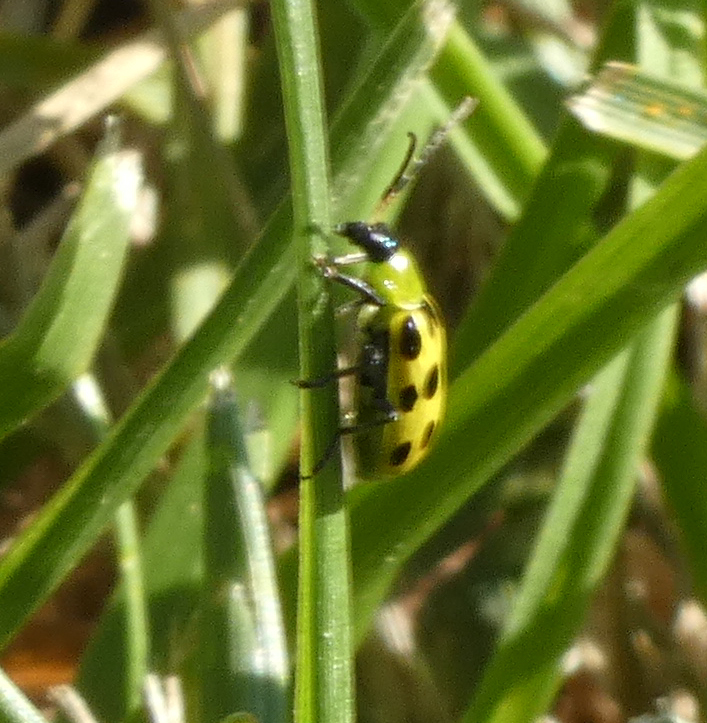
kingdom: Animalia
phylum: Arthropoda
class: Insecta
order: Coleoptera
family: Chrysomelidae
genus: Diabrotica
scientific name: Diabrotica undecimpunctata
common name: Spotted cucumber beetle
